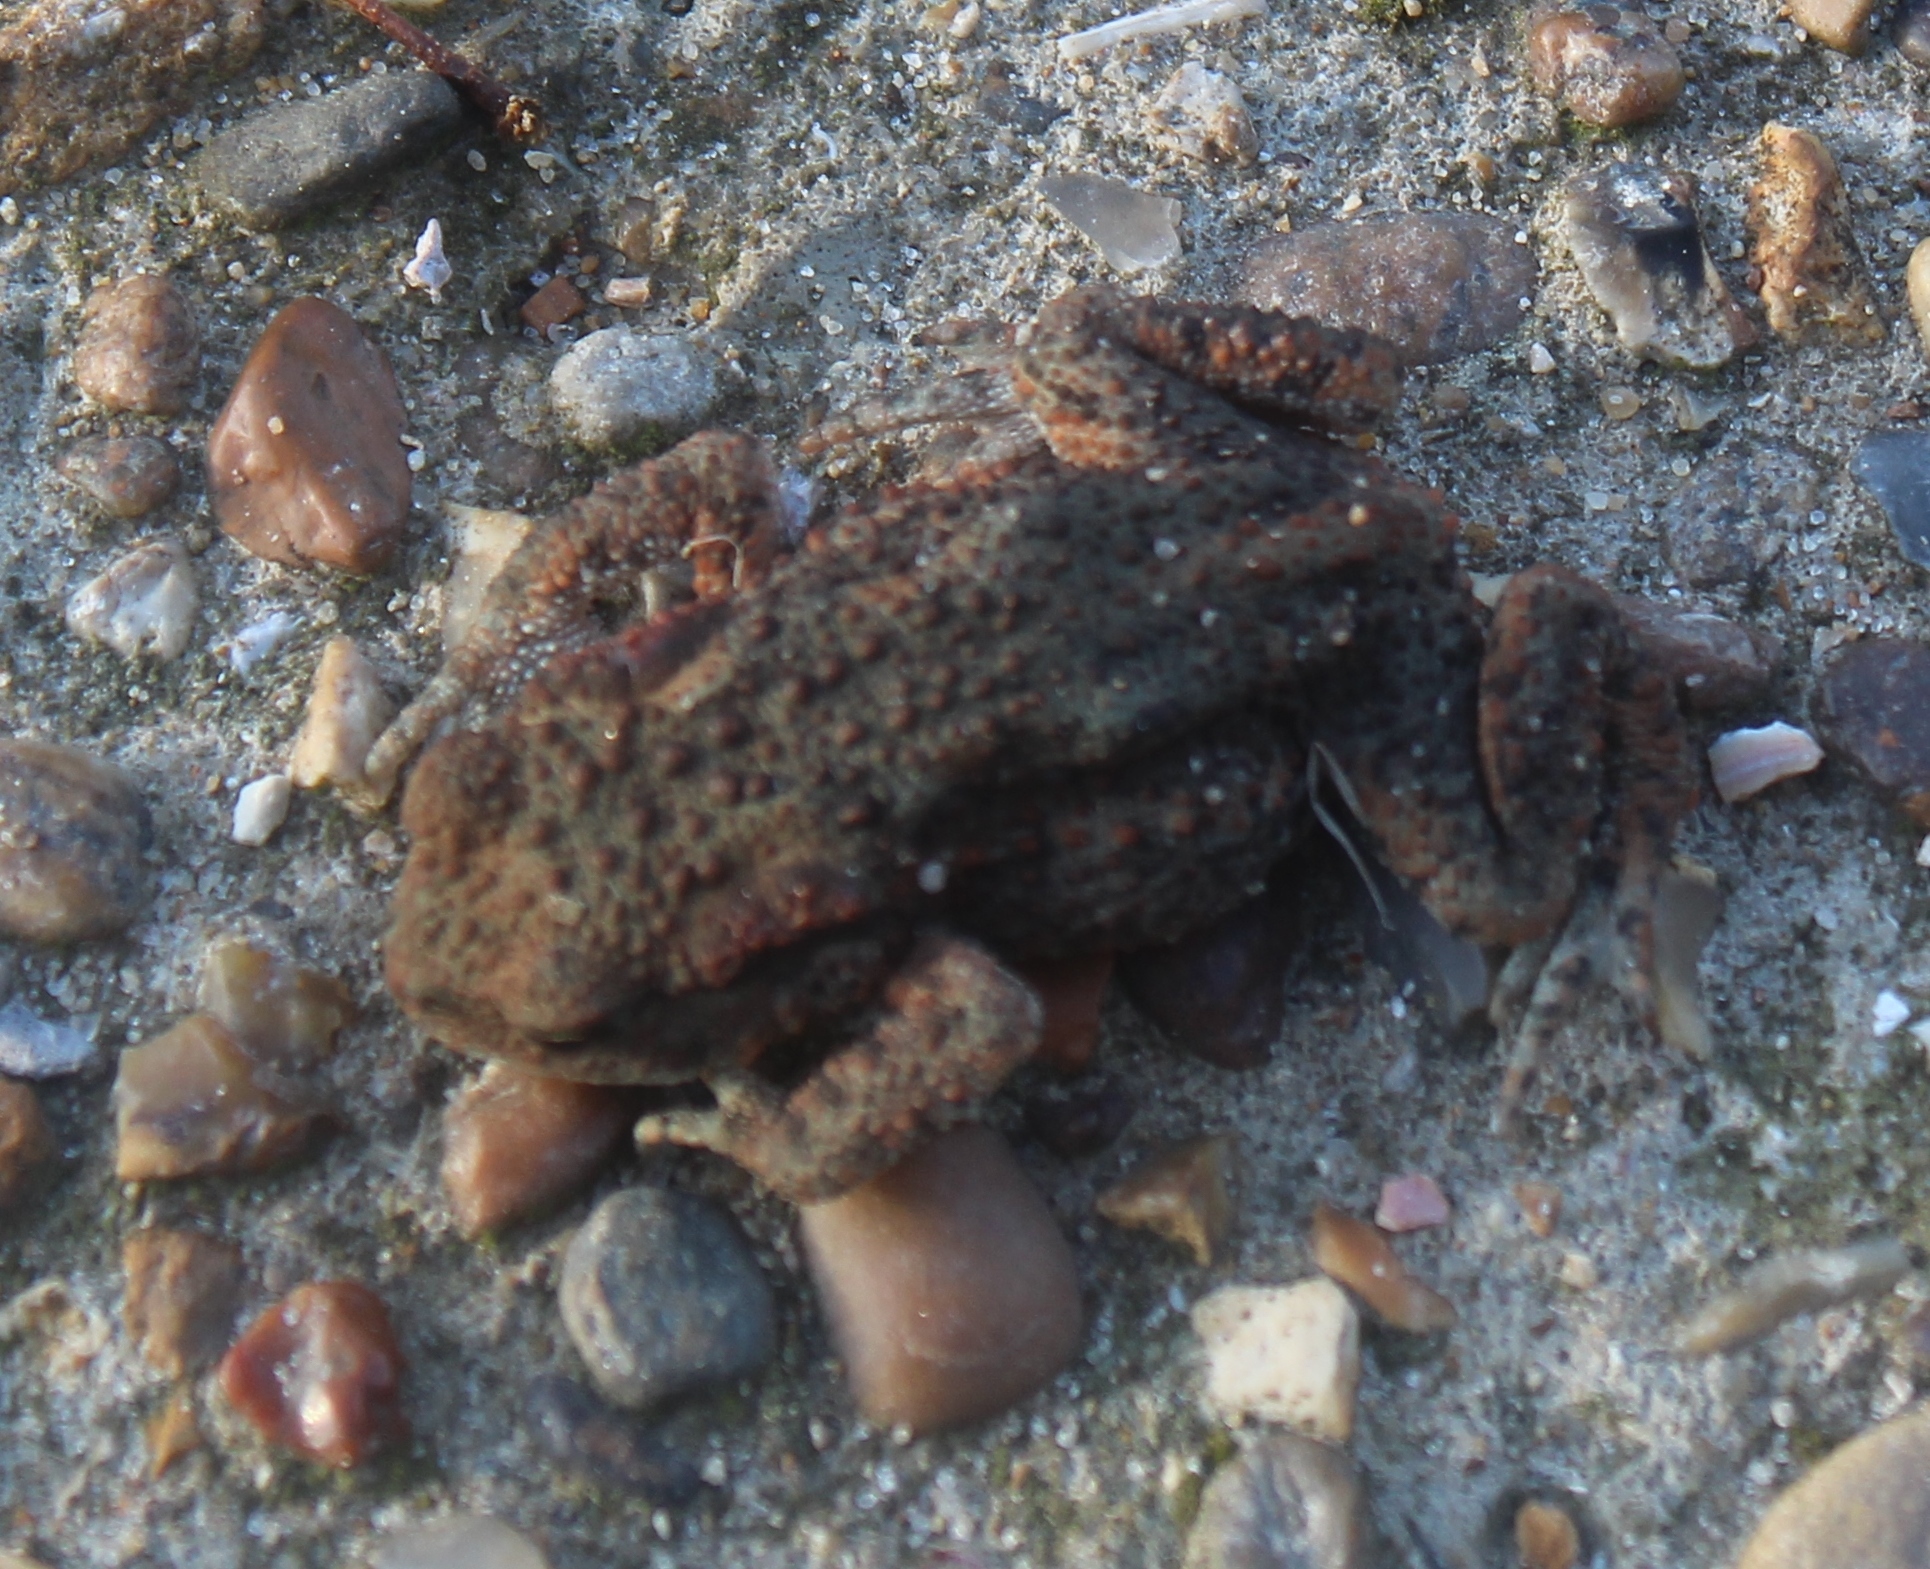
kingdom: Animalia
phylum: Chordata
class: Amphibia
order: Anura
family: Bufonidae
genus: Bufo
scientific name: Bufo bufo
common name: Common toad
